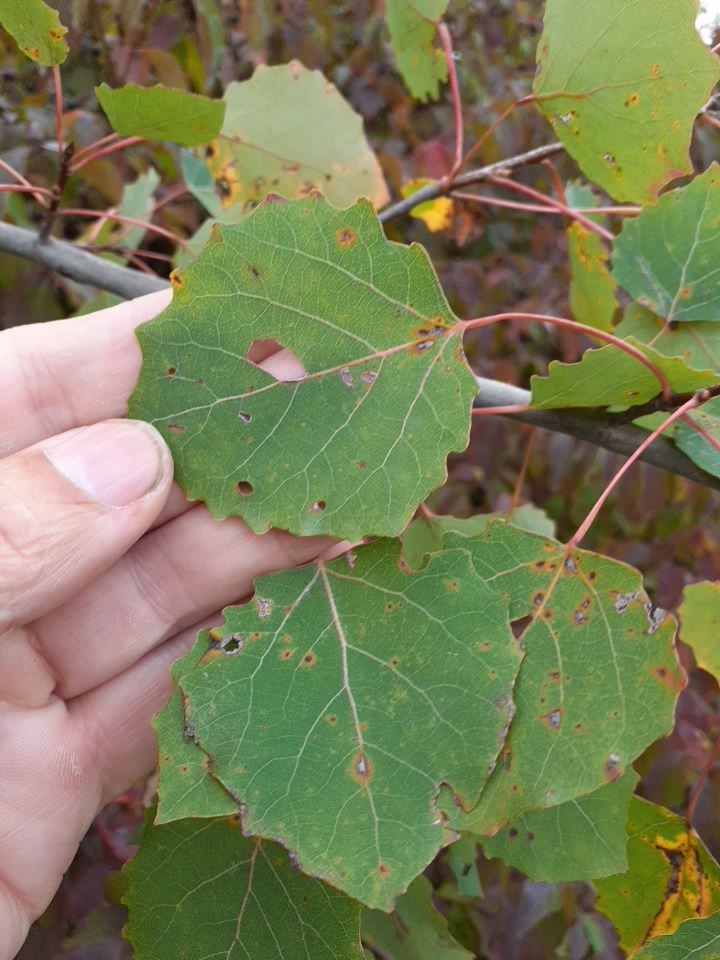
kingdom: Plantae
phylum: Tracheophyta
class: Magnoliopsida
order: Malpighiales
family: Salicaceae
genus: Populus
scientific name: Populus tremula
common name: European aspen
